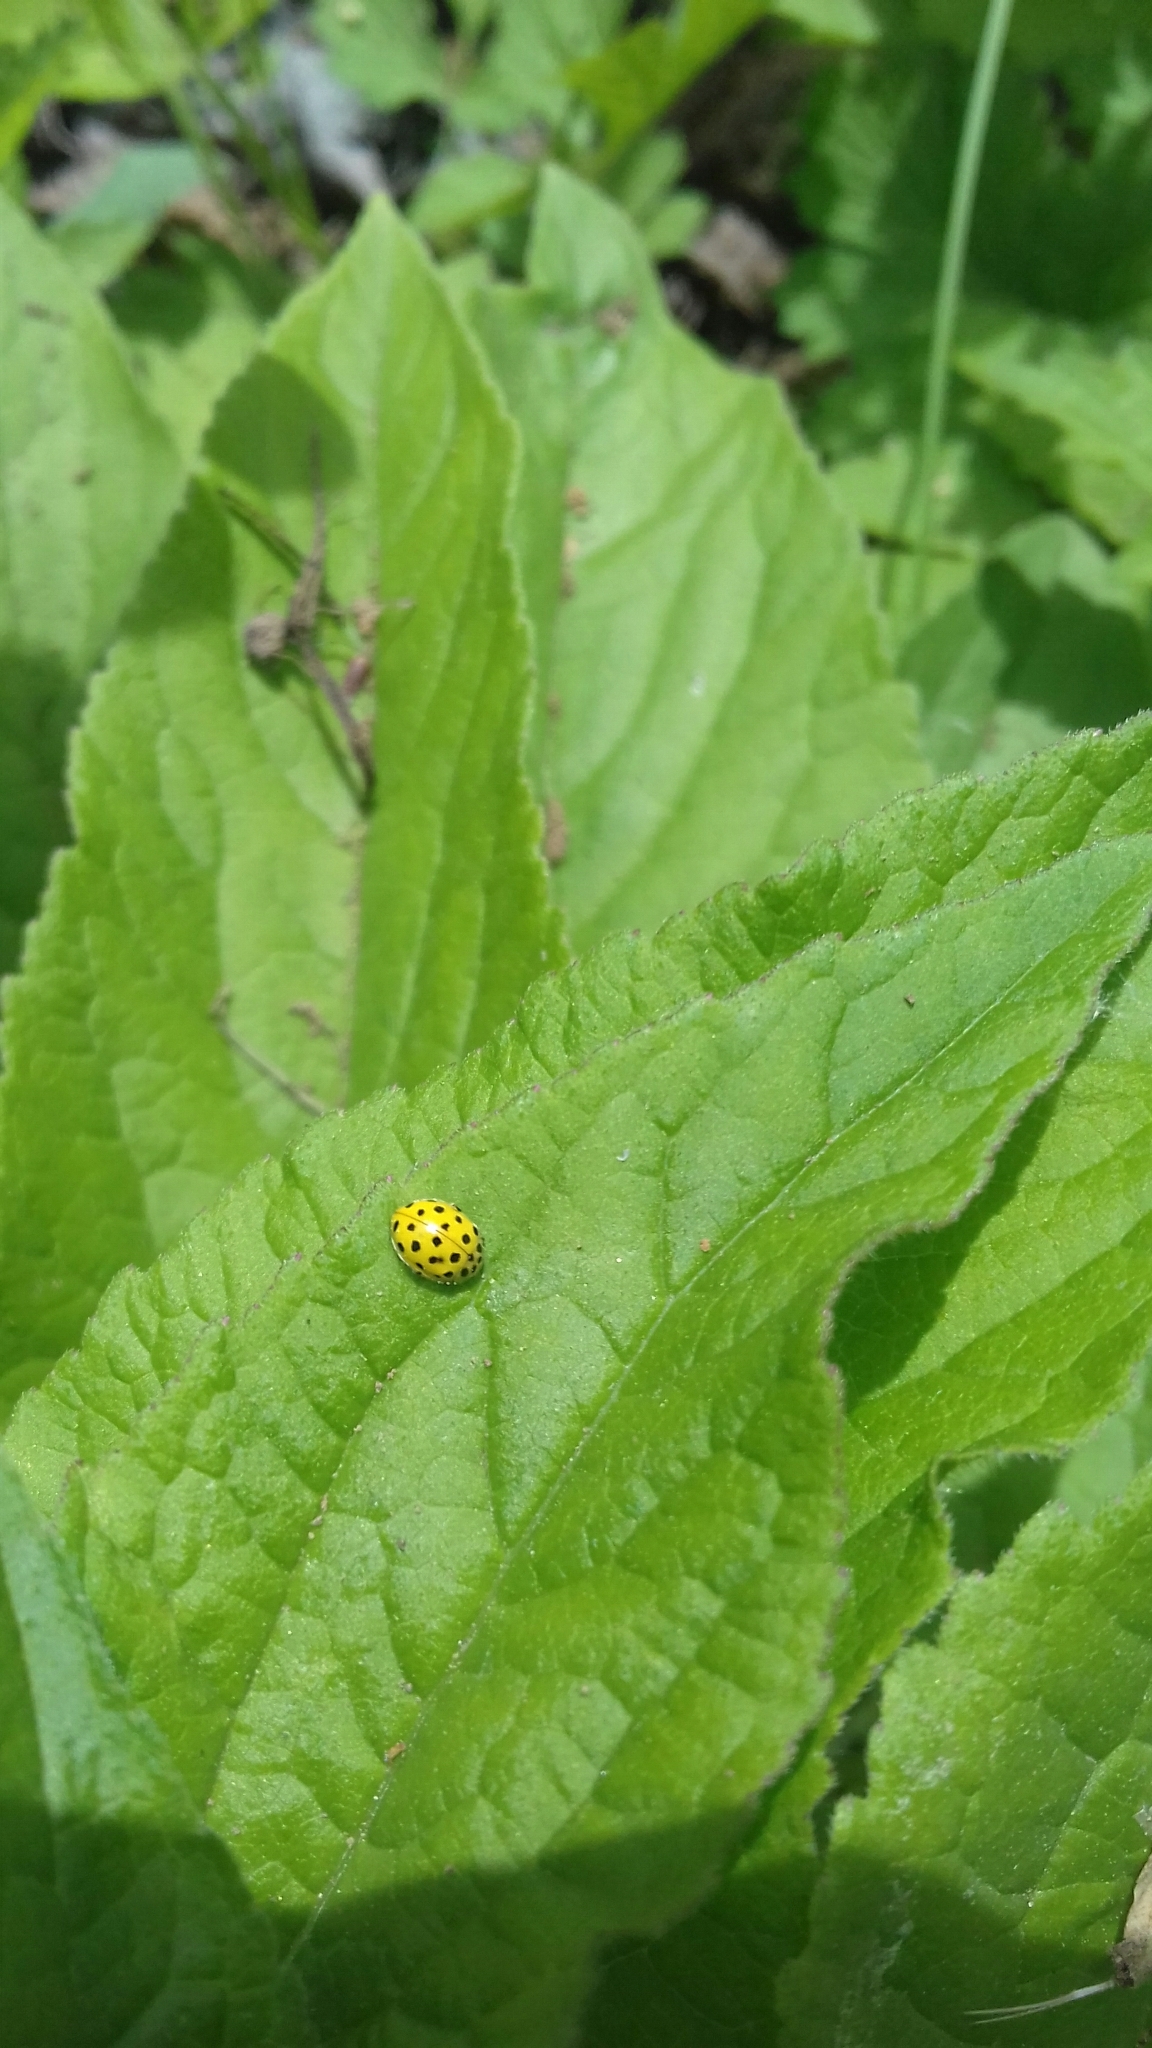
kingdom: Animalia
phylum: Arthropoda
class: Insecta
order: Coleoptera
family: Coccinellidae
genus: Psyllobora
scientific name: Psyllobora vigintiduopunctata
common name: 22-spot ladybird
